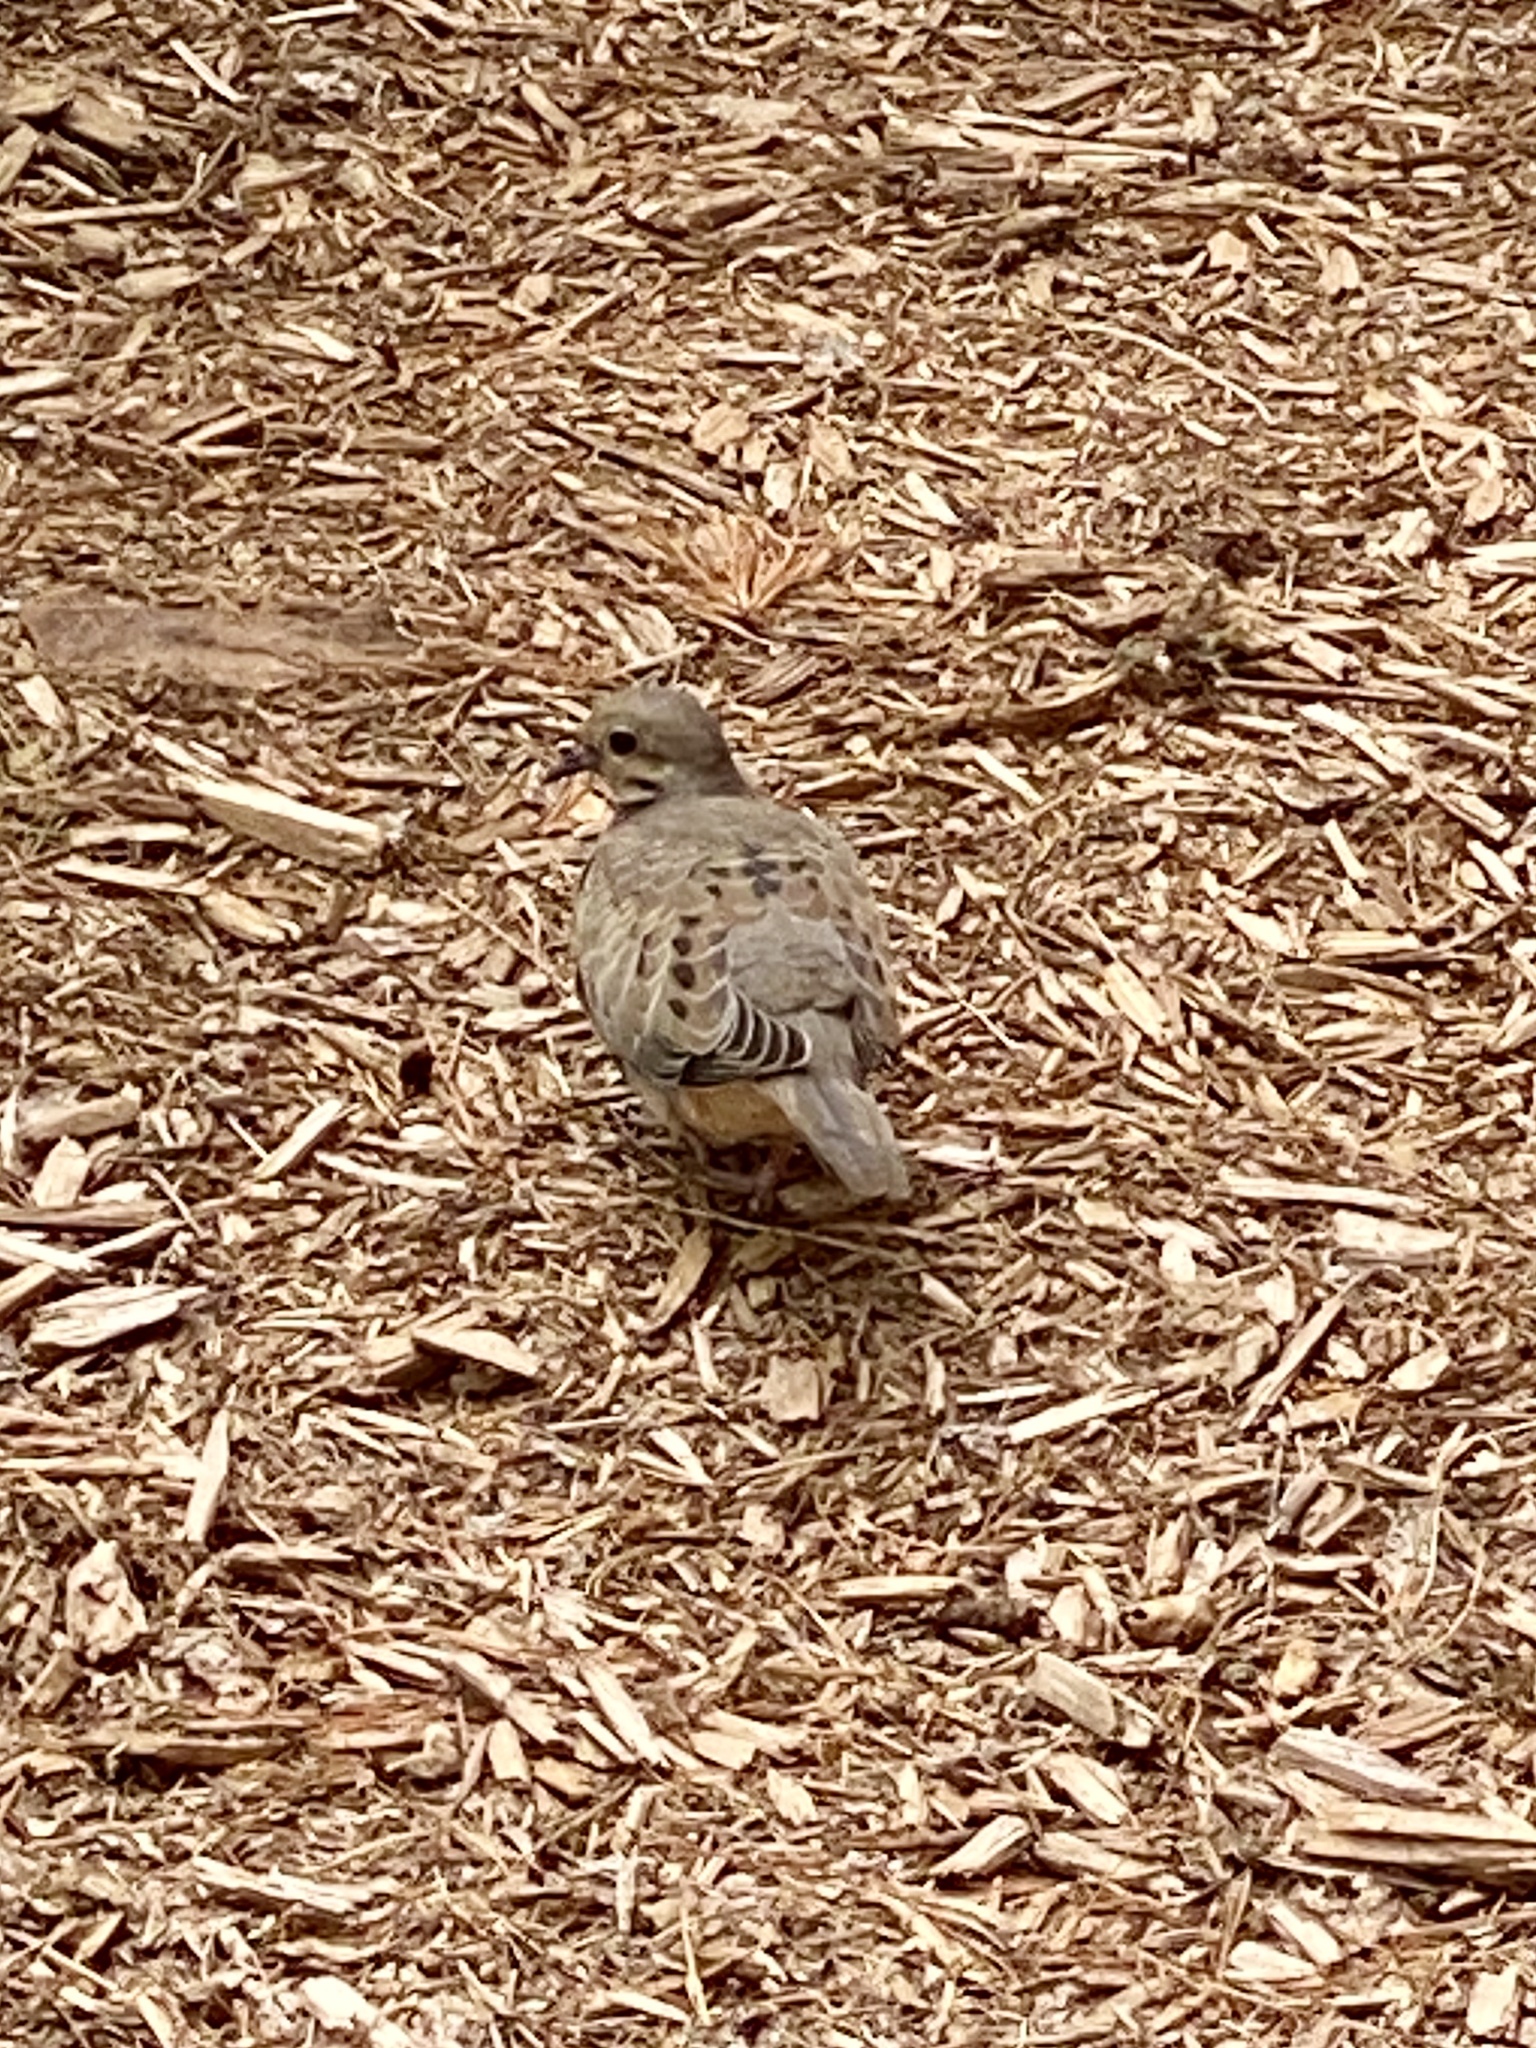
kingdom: Animalia
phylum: Chordata
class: Aves
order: Columbiformes
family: Columbidae
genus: Zenaida
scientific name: Zenaida macroura
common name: Mourning dove
